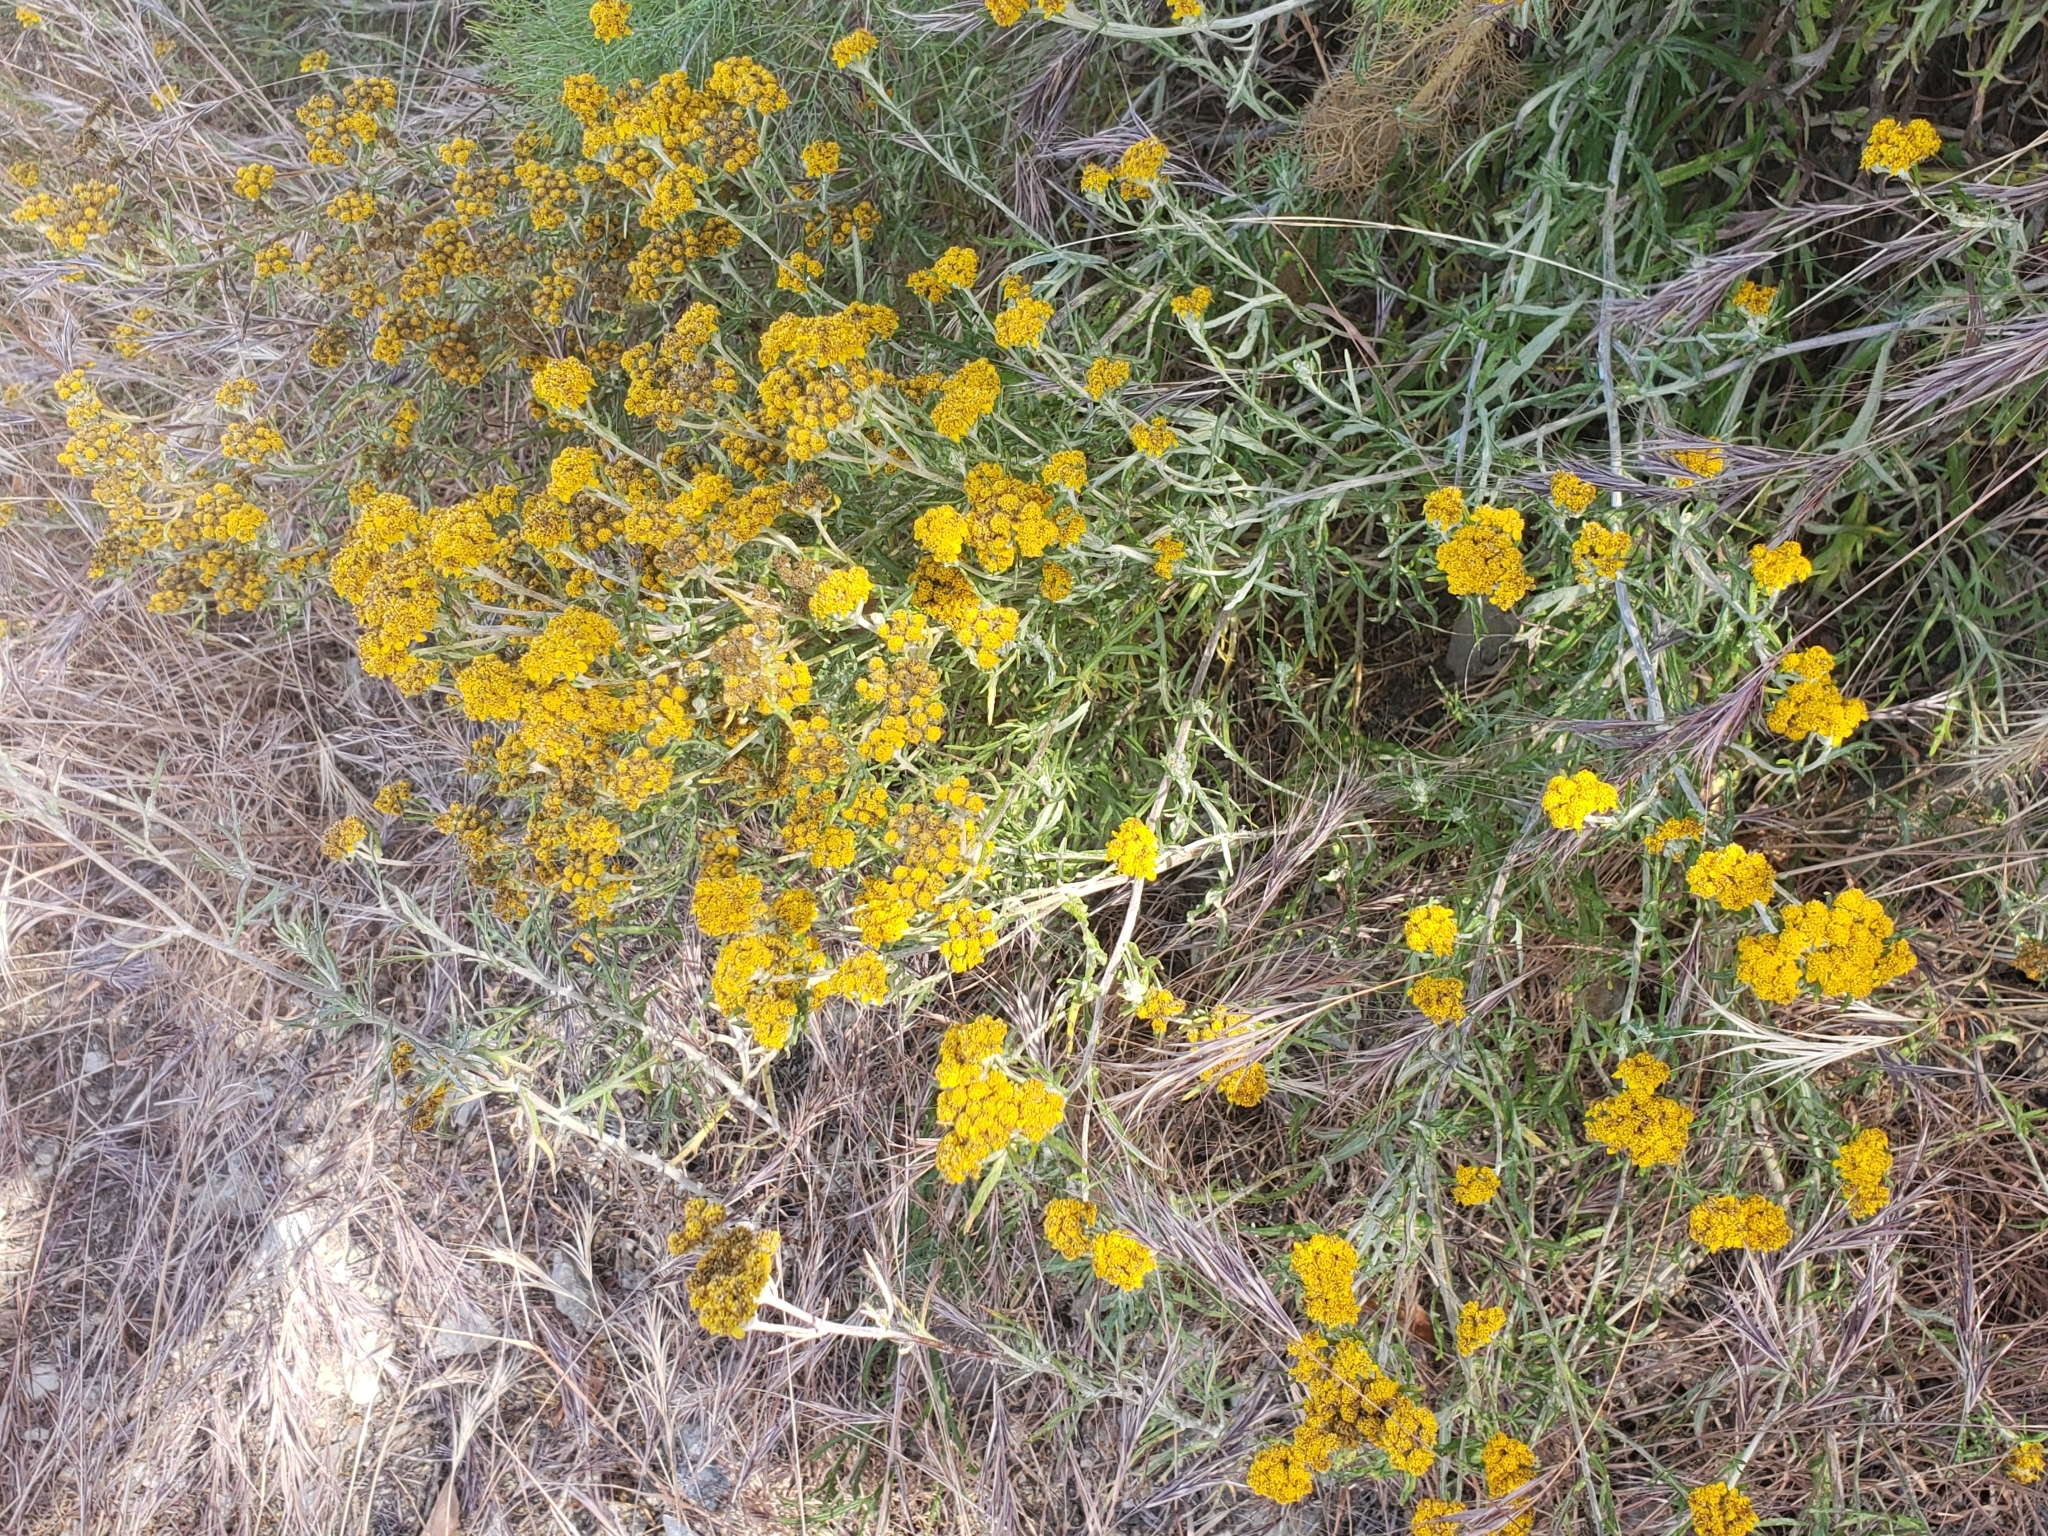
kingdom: Plantae
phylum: Tracheophyta
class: Magnoliopsida
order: Asterales
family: Asteraceae
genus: Eriophyllum
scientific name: Eriophyllum confertiflorum
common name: Golden-yarrow
